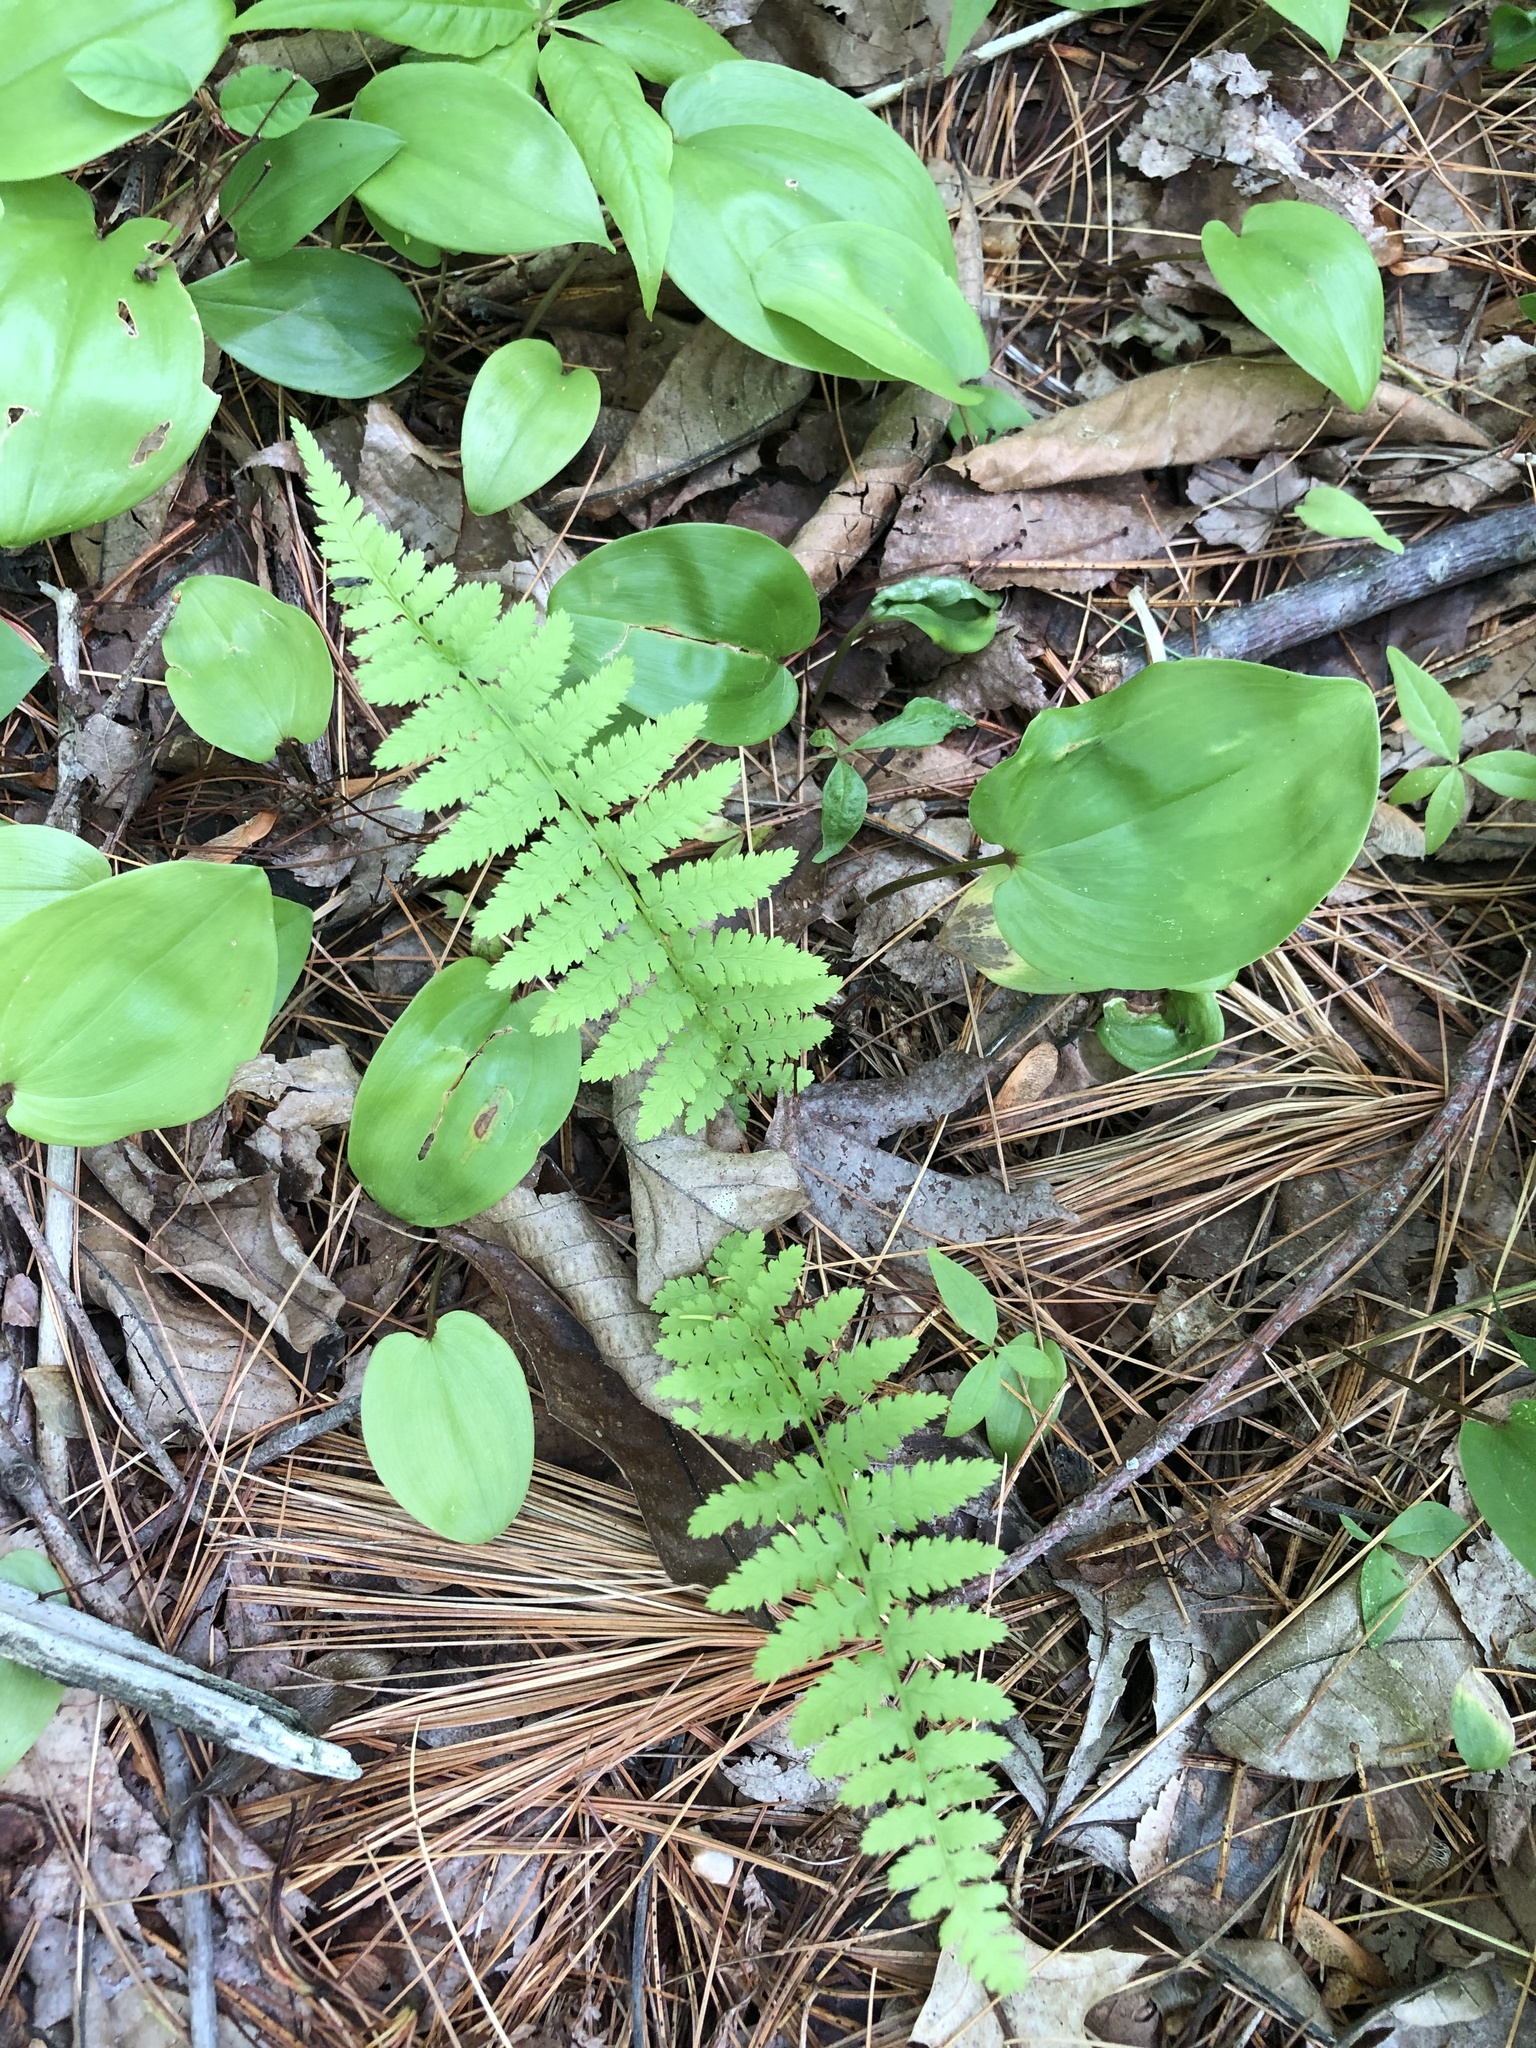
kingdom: Plantae
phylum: Tracheophyta
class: Polypodiopsida
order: Polypodiales
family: Athyriaceae
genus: Athyrium
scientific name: Athyrium angustum
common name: Northern lady fern
